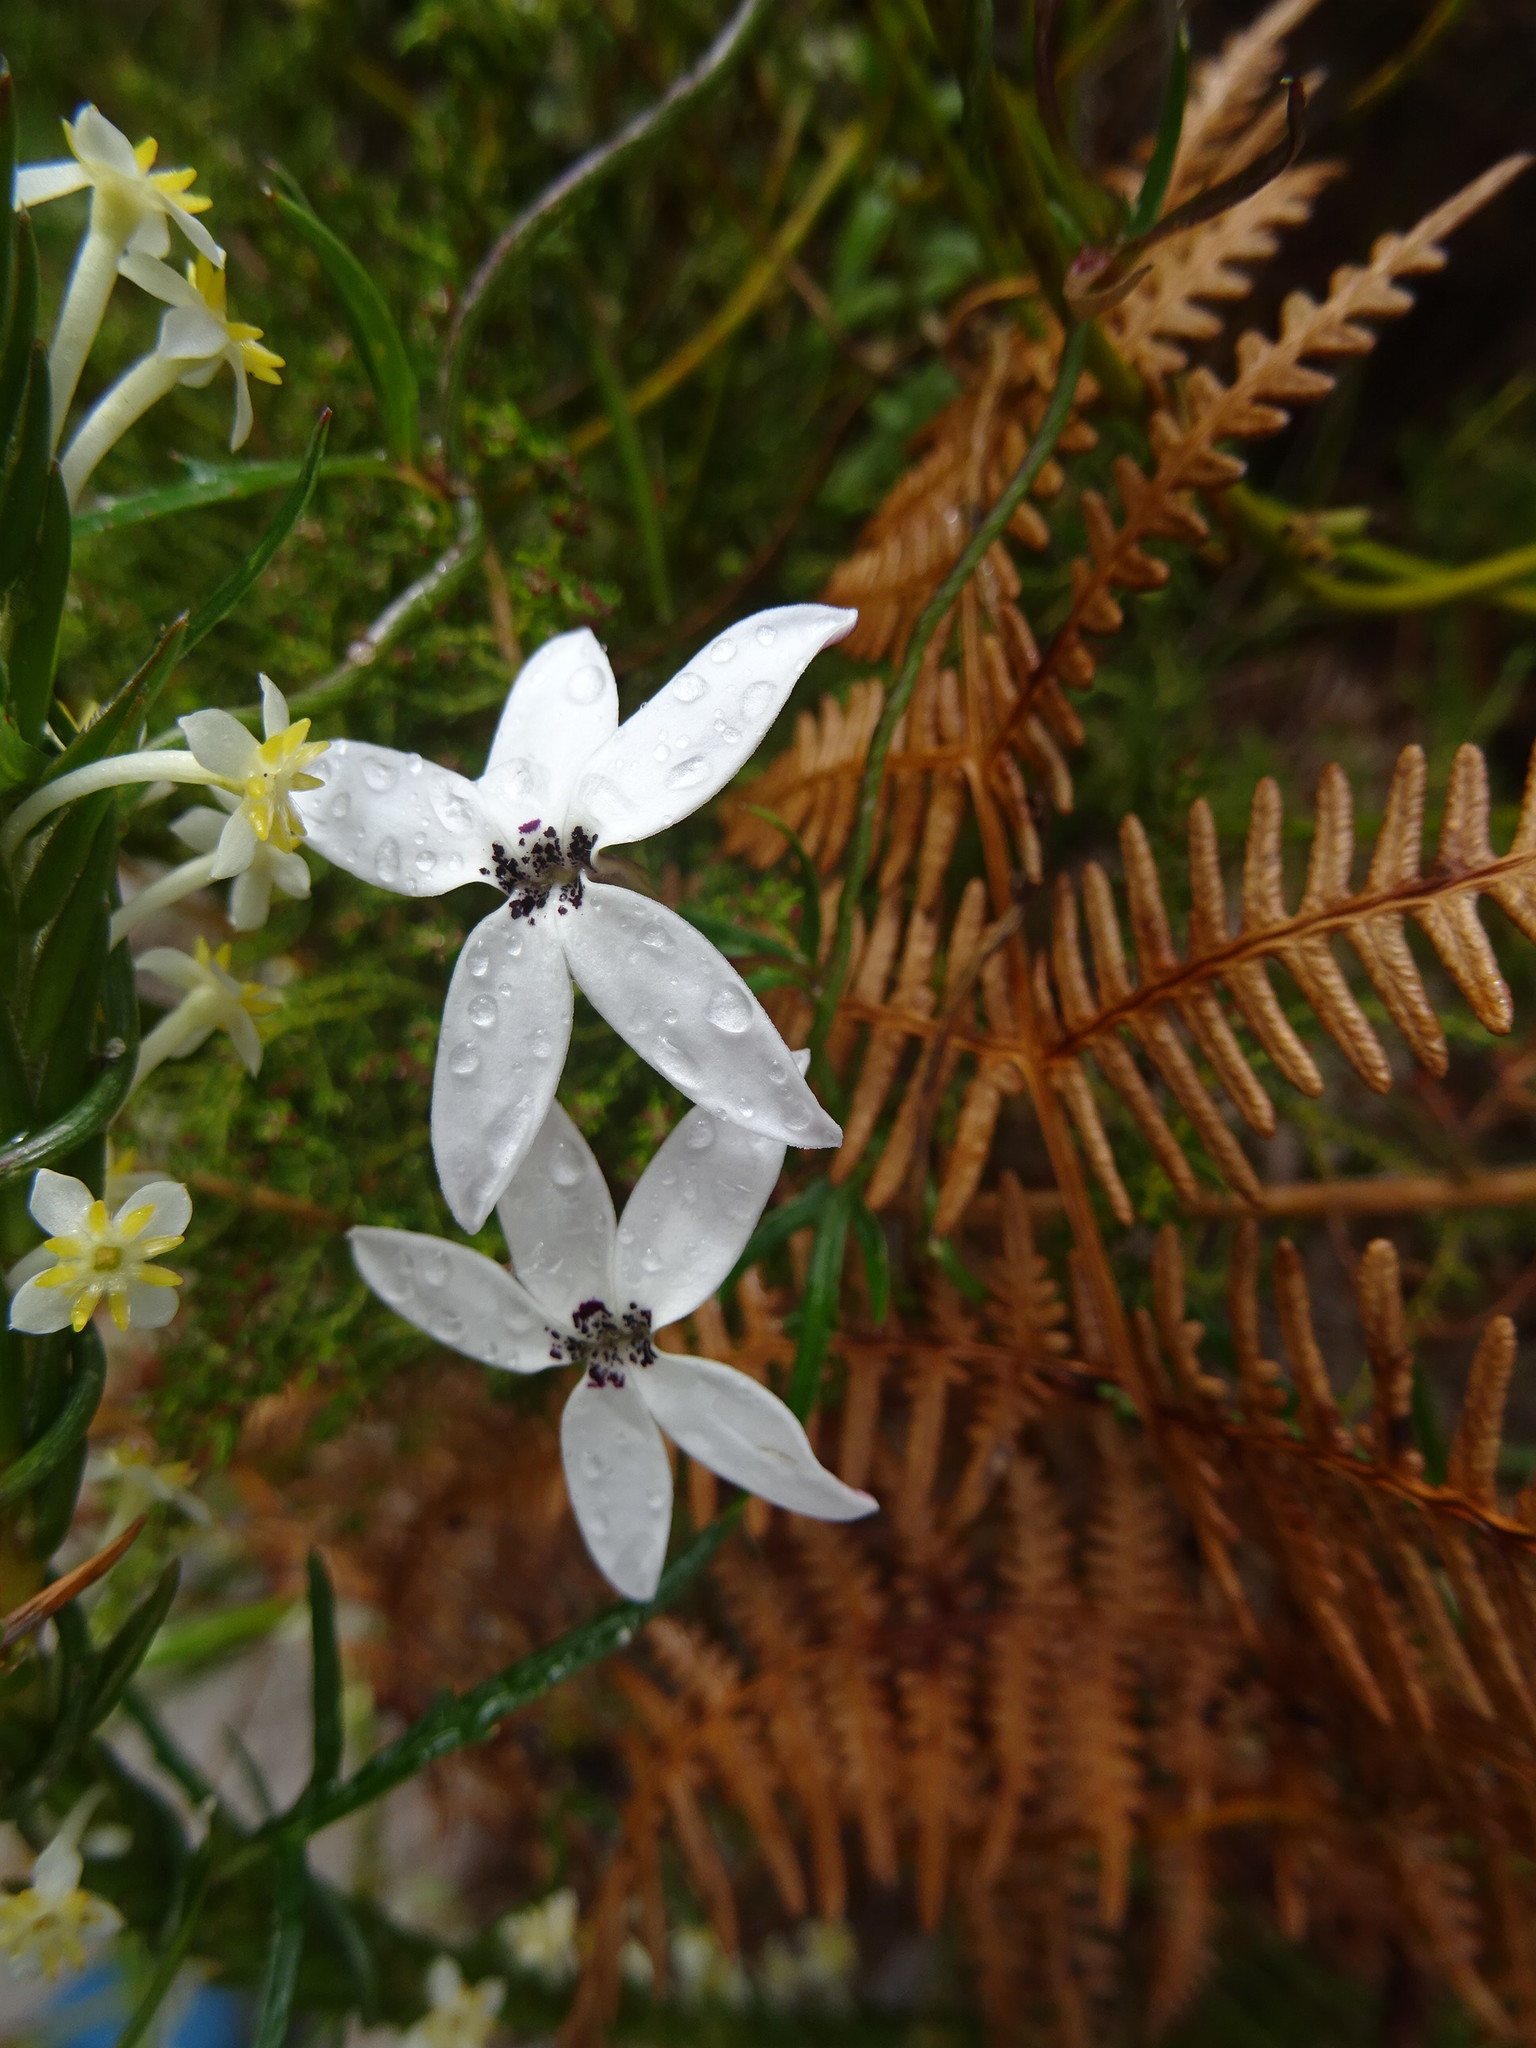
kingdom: Plantae
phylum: Tracheophyta
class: Magnoliopsida
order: Asterales
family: Campanulaceae
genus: Cyphia
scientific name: Cyphia volubilis
